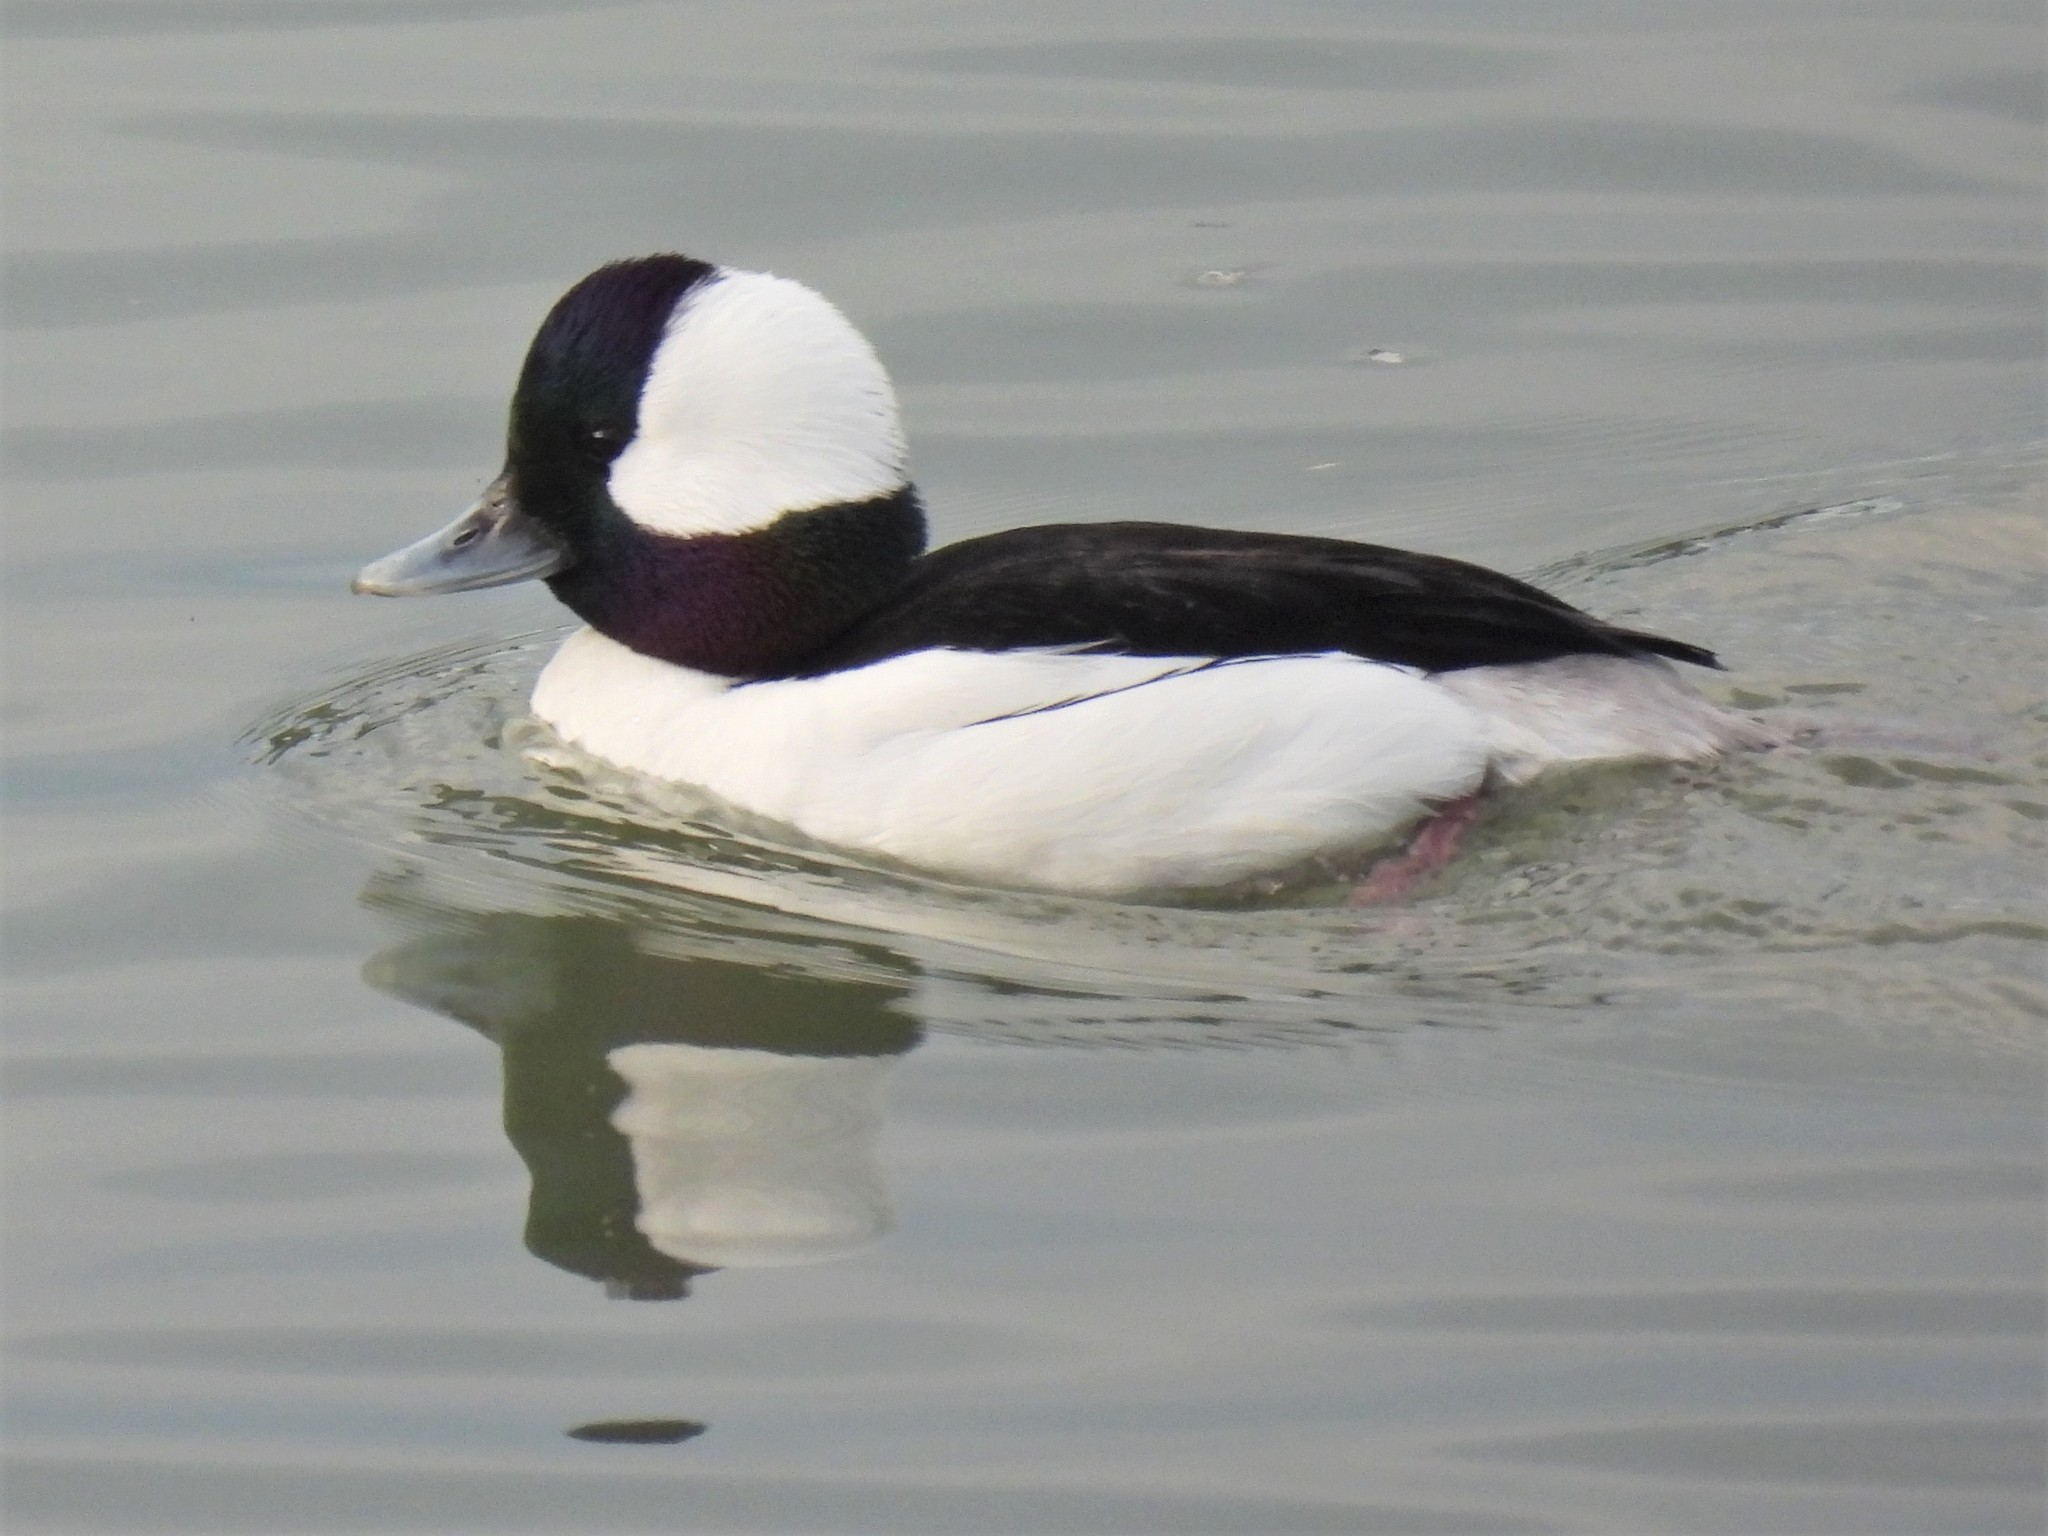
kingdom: Animalia
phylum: Chordata
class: Aves
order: Anseriformes
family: Anatidae
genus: Bucephala
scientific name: Bucephala albeola
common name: Bufflehead
